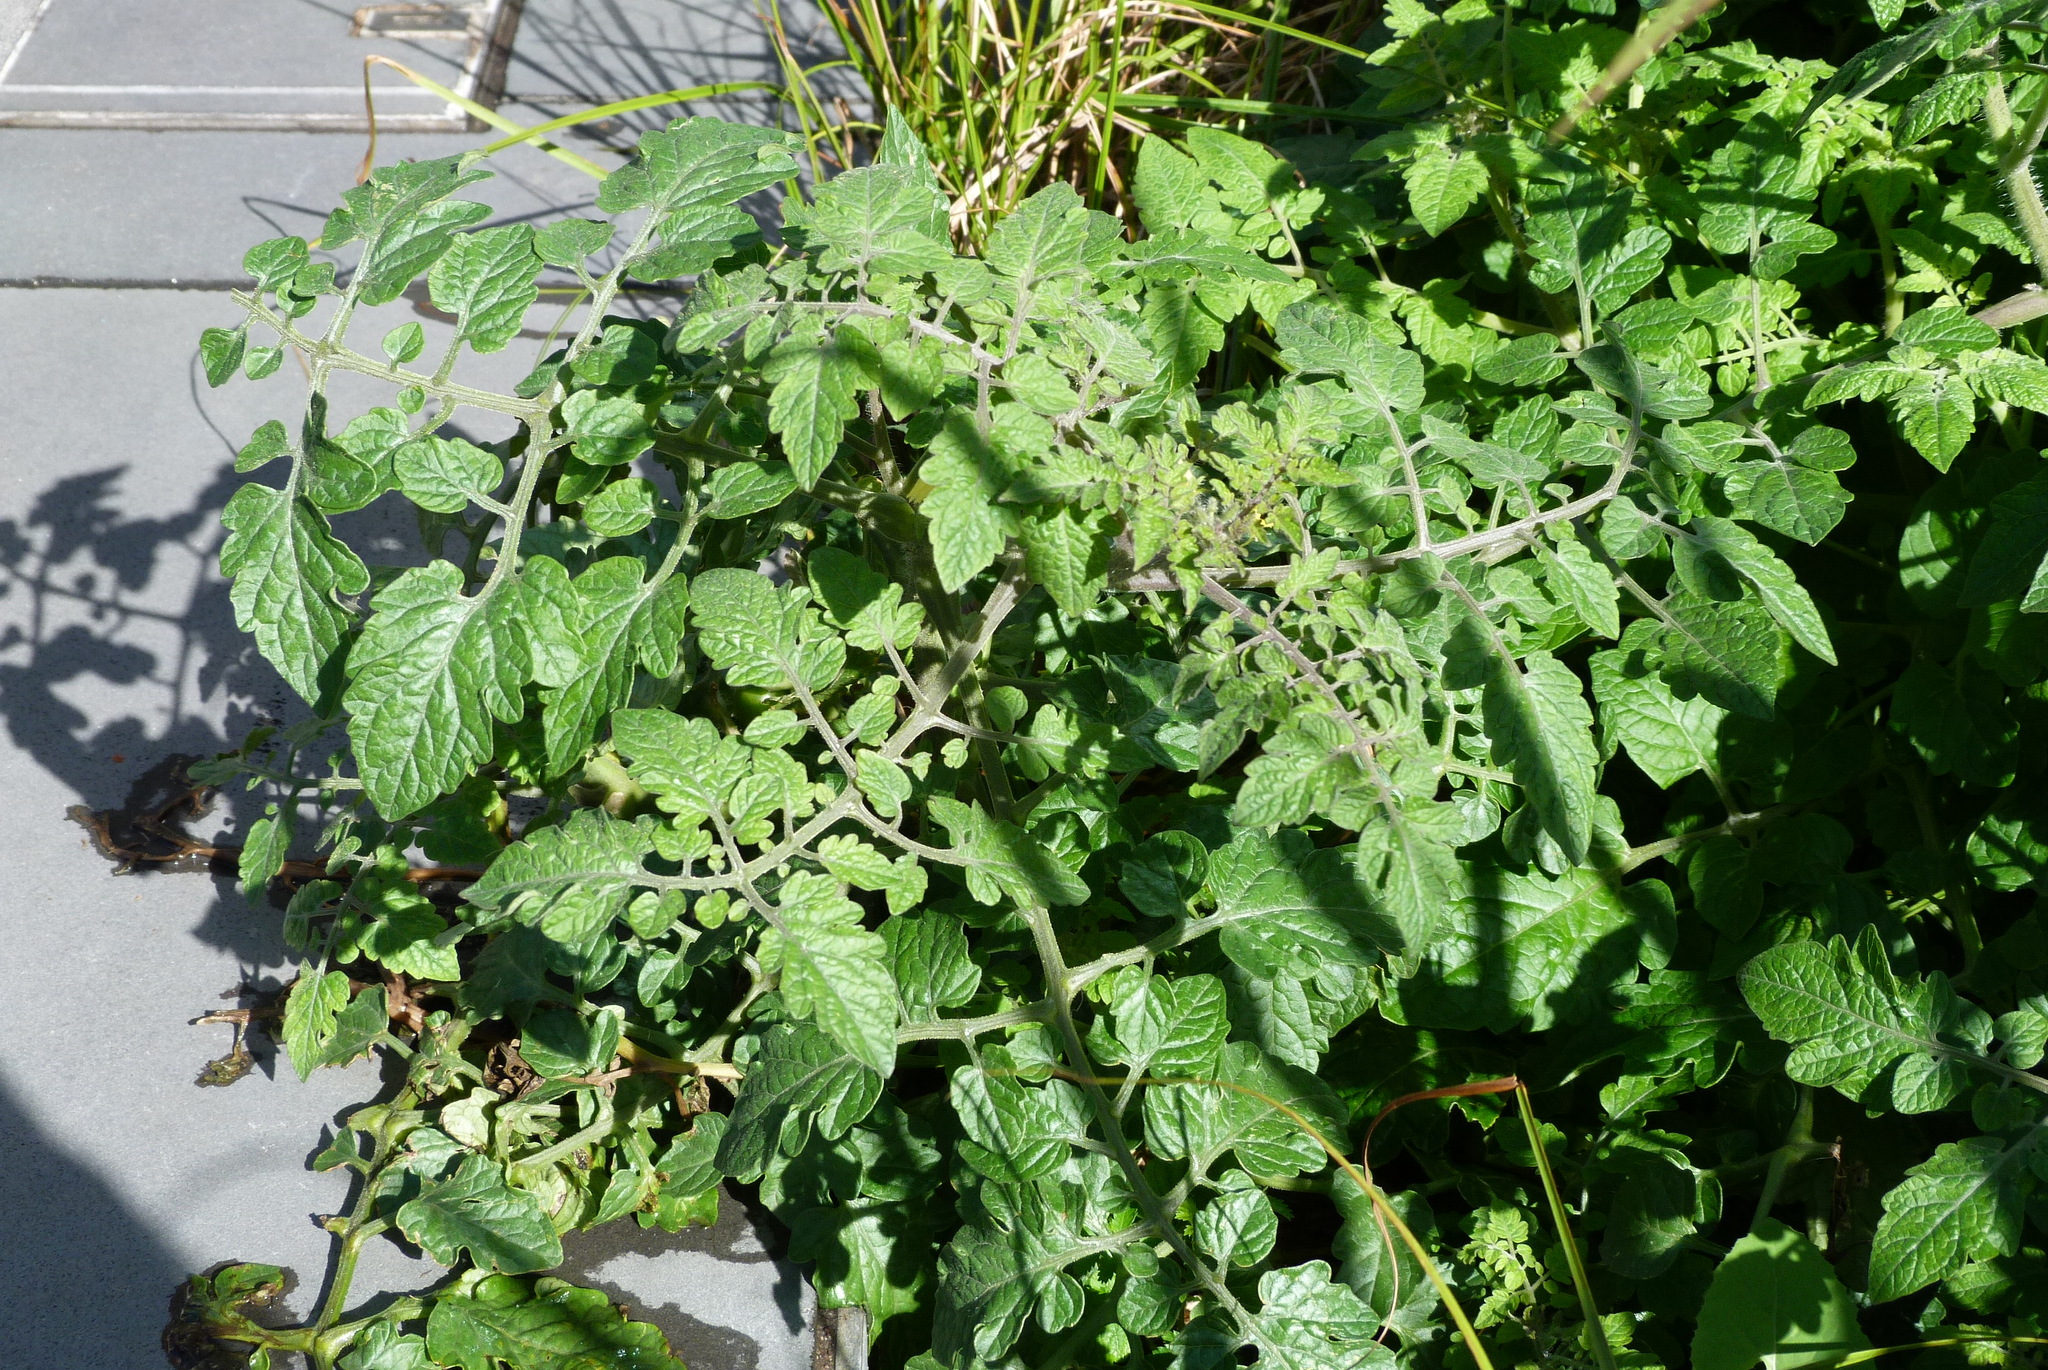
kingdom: Plantae
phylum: Tracheophyta
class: Magnoliopsida
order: Solanales
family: Solanaceae
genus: Solanum
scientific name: Solanum lycopersicum
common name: Garden tomato
